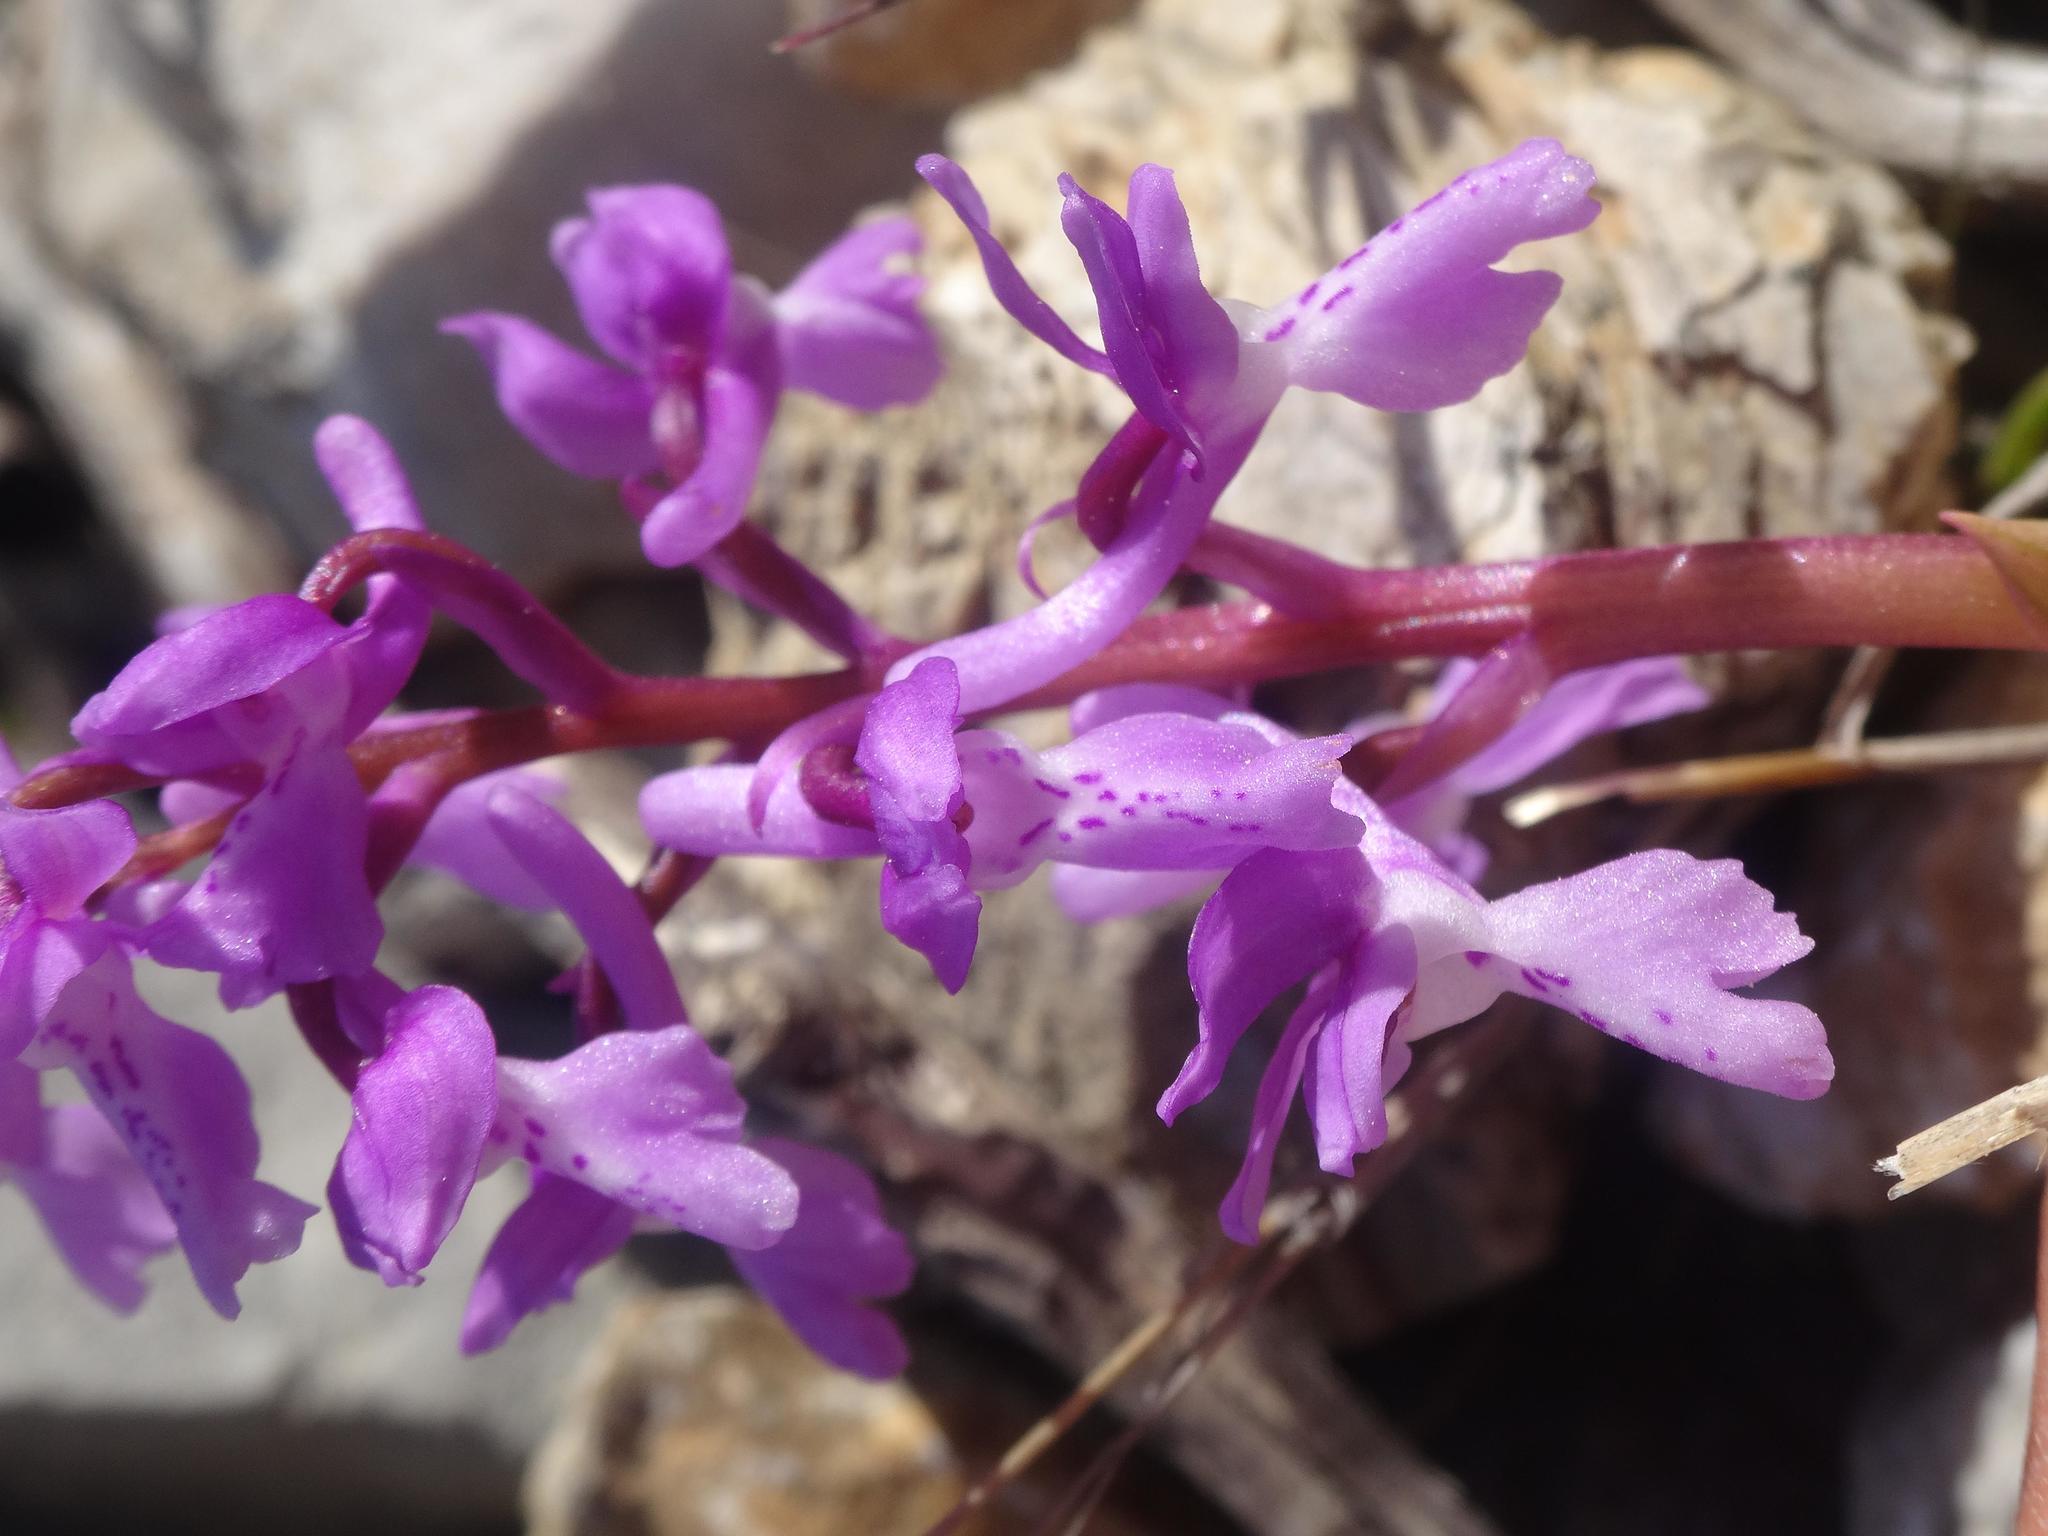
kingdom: Plantae
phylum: Tracheophyta
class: Liliopsida
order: Asparagales
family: Orchidaceae
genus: Orchis
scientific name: Orchis olbiensis
